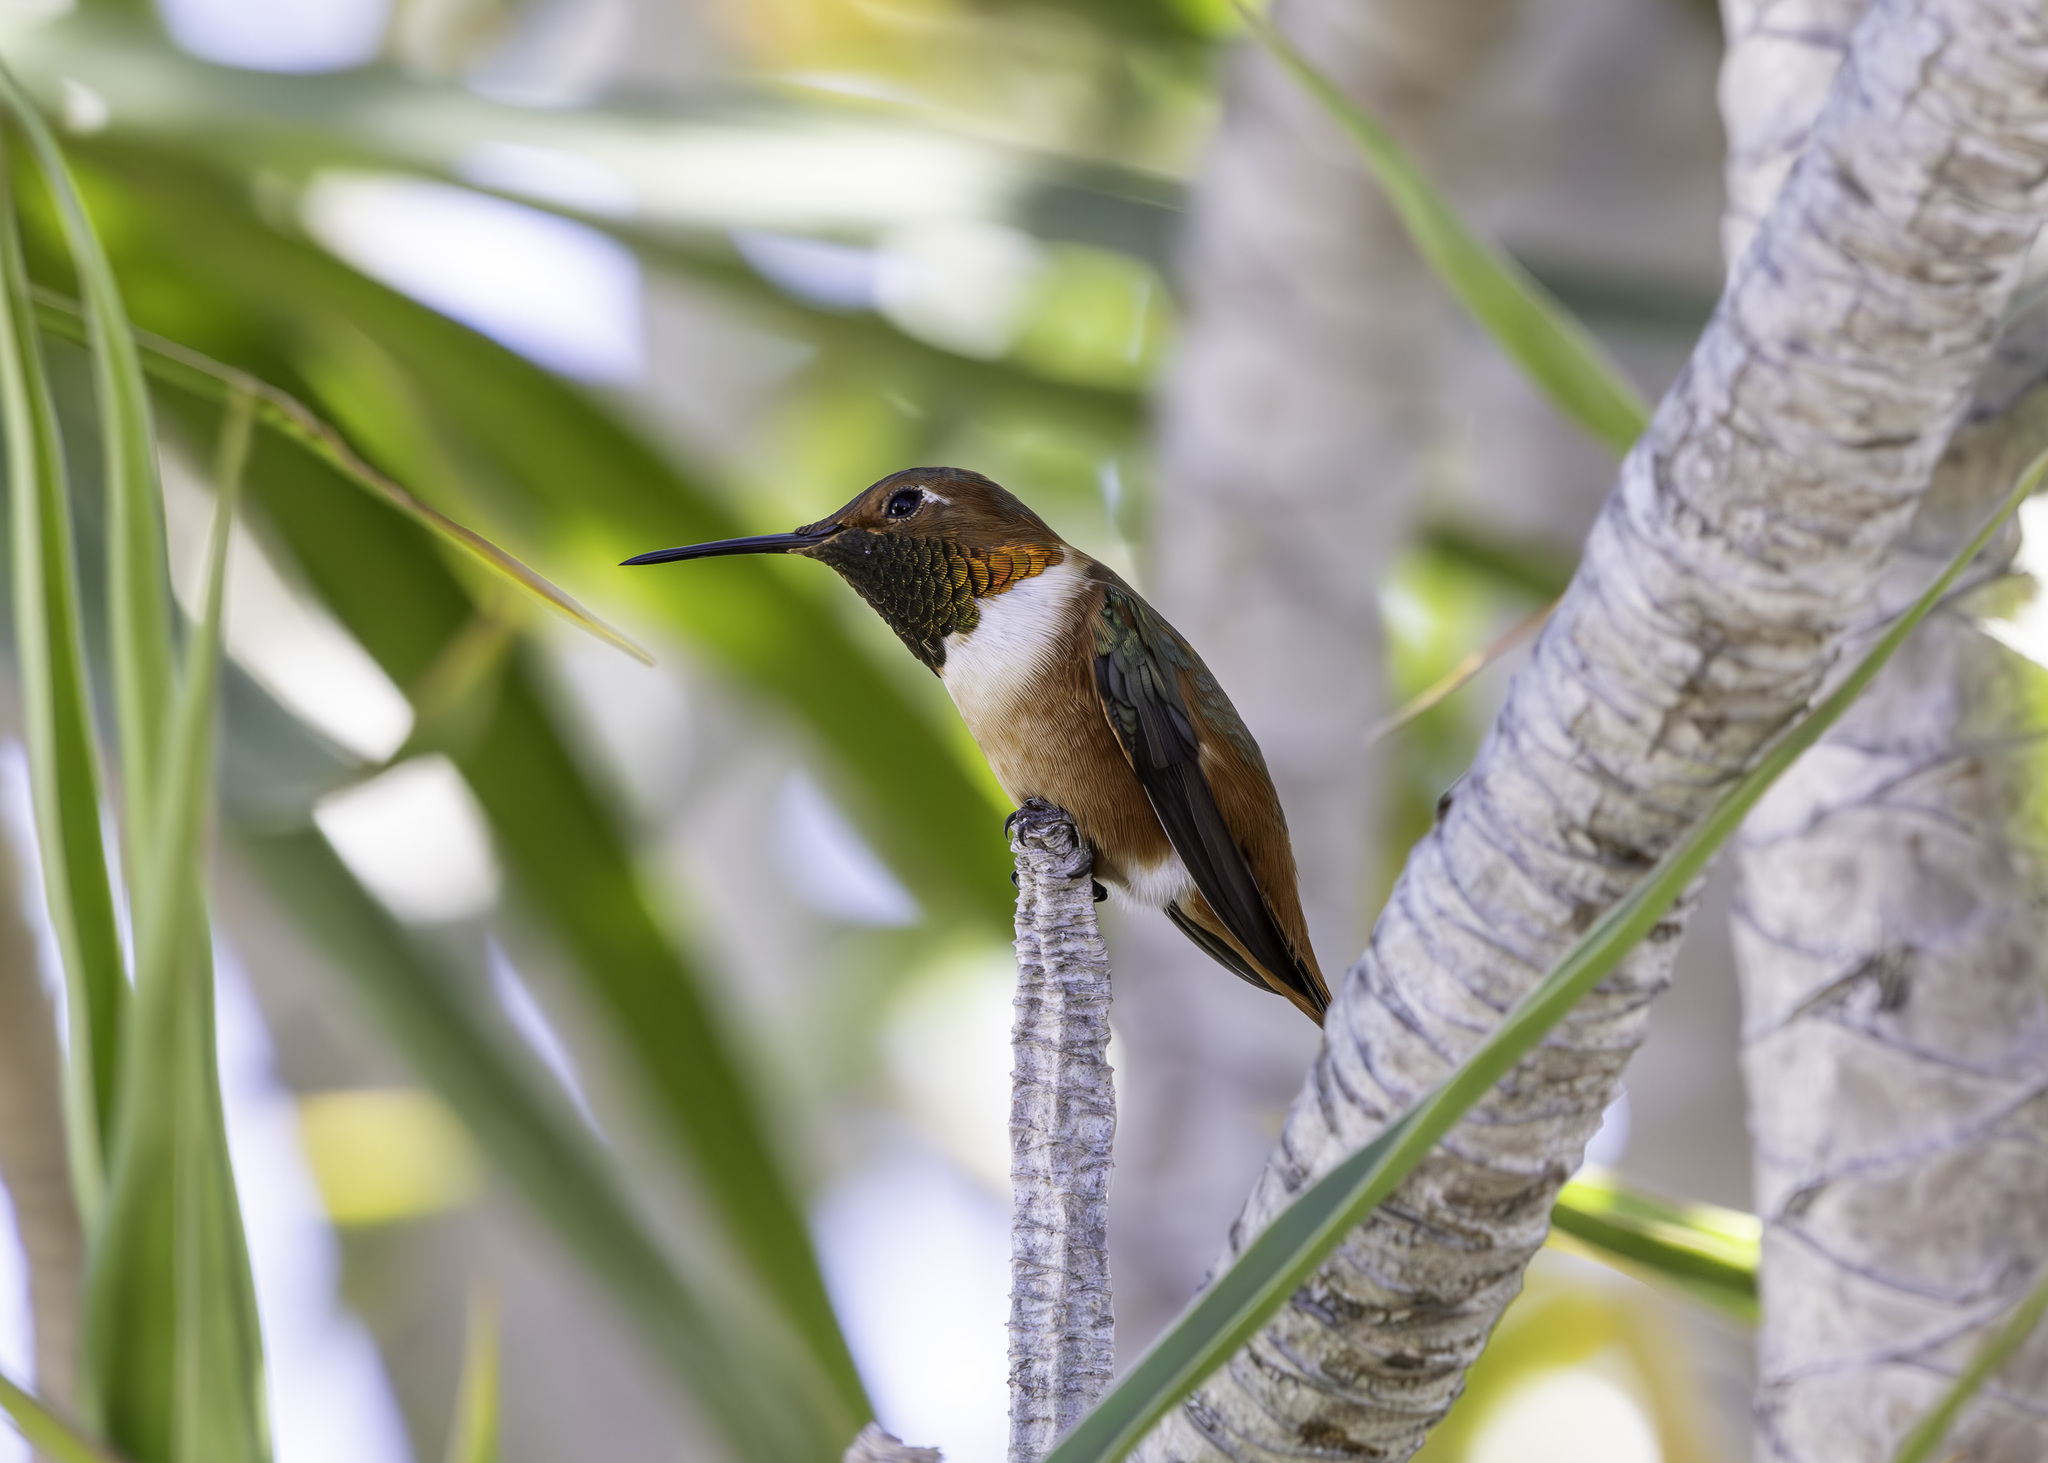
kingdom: Animalia
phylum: Chordata
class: Aves
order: Apodiformes
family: Trochilidae
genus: Selasphorus
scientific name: Selasphorus sasin
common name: Allen's hummingbird
